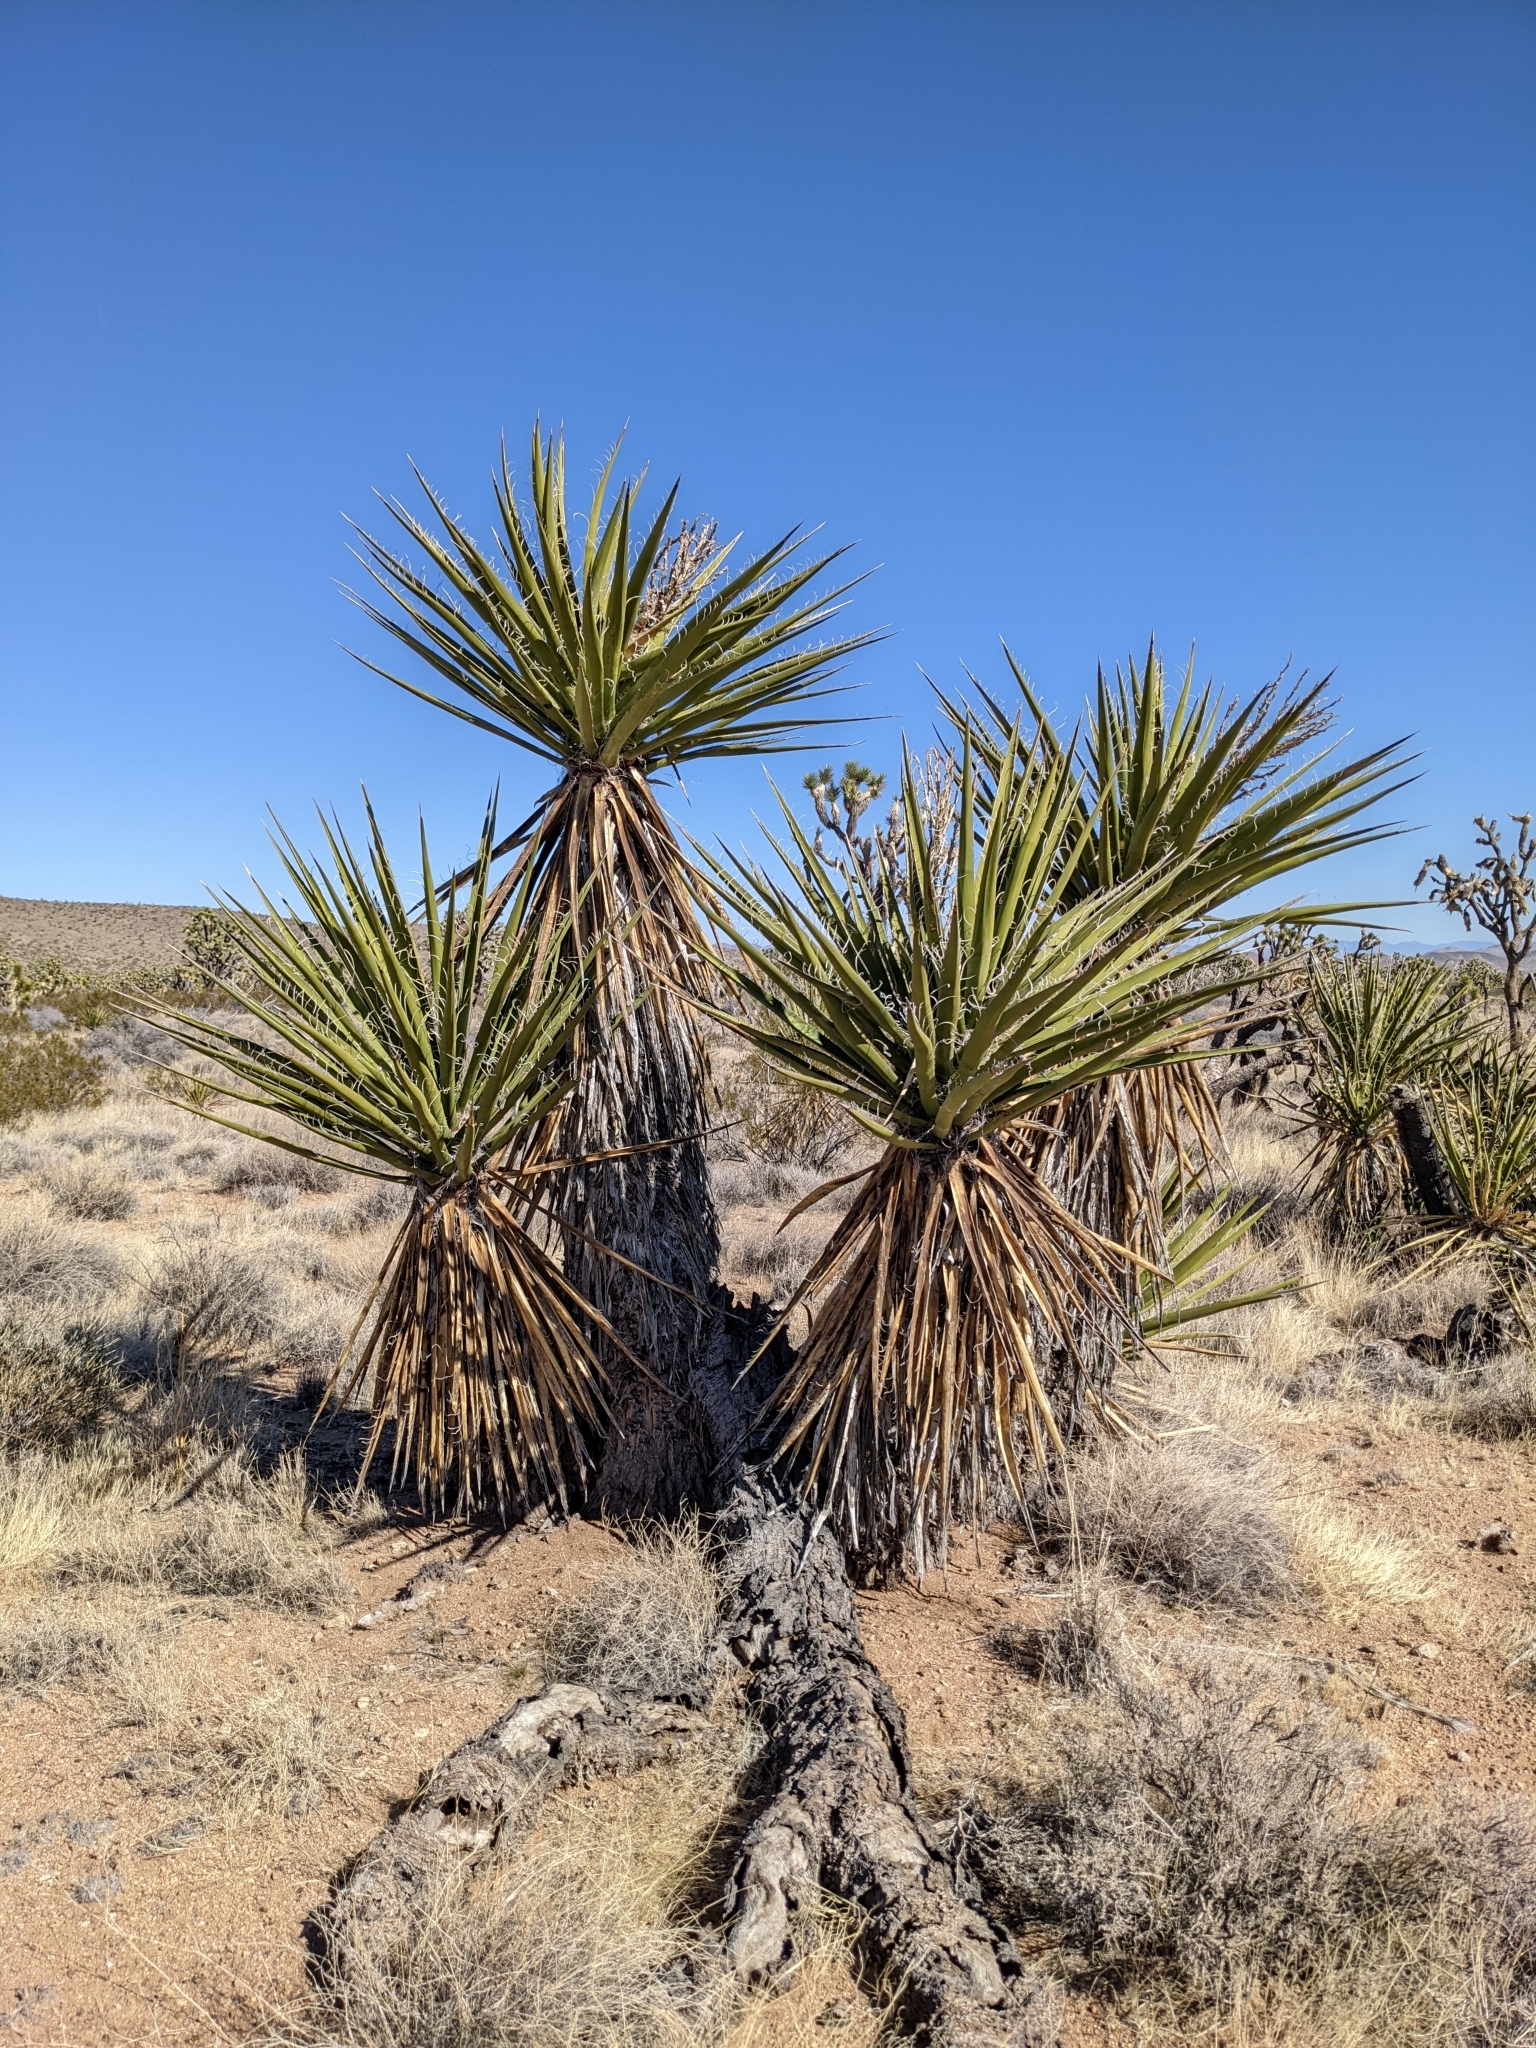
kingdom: Plantae
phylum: Tracheophyta
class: Liliopsida
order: Asparagales
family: Asparagaceae
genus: Yucca
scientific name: Yucca schidigera
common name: Mojave yucca
